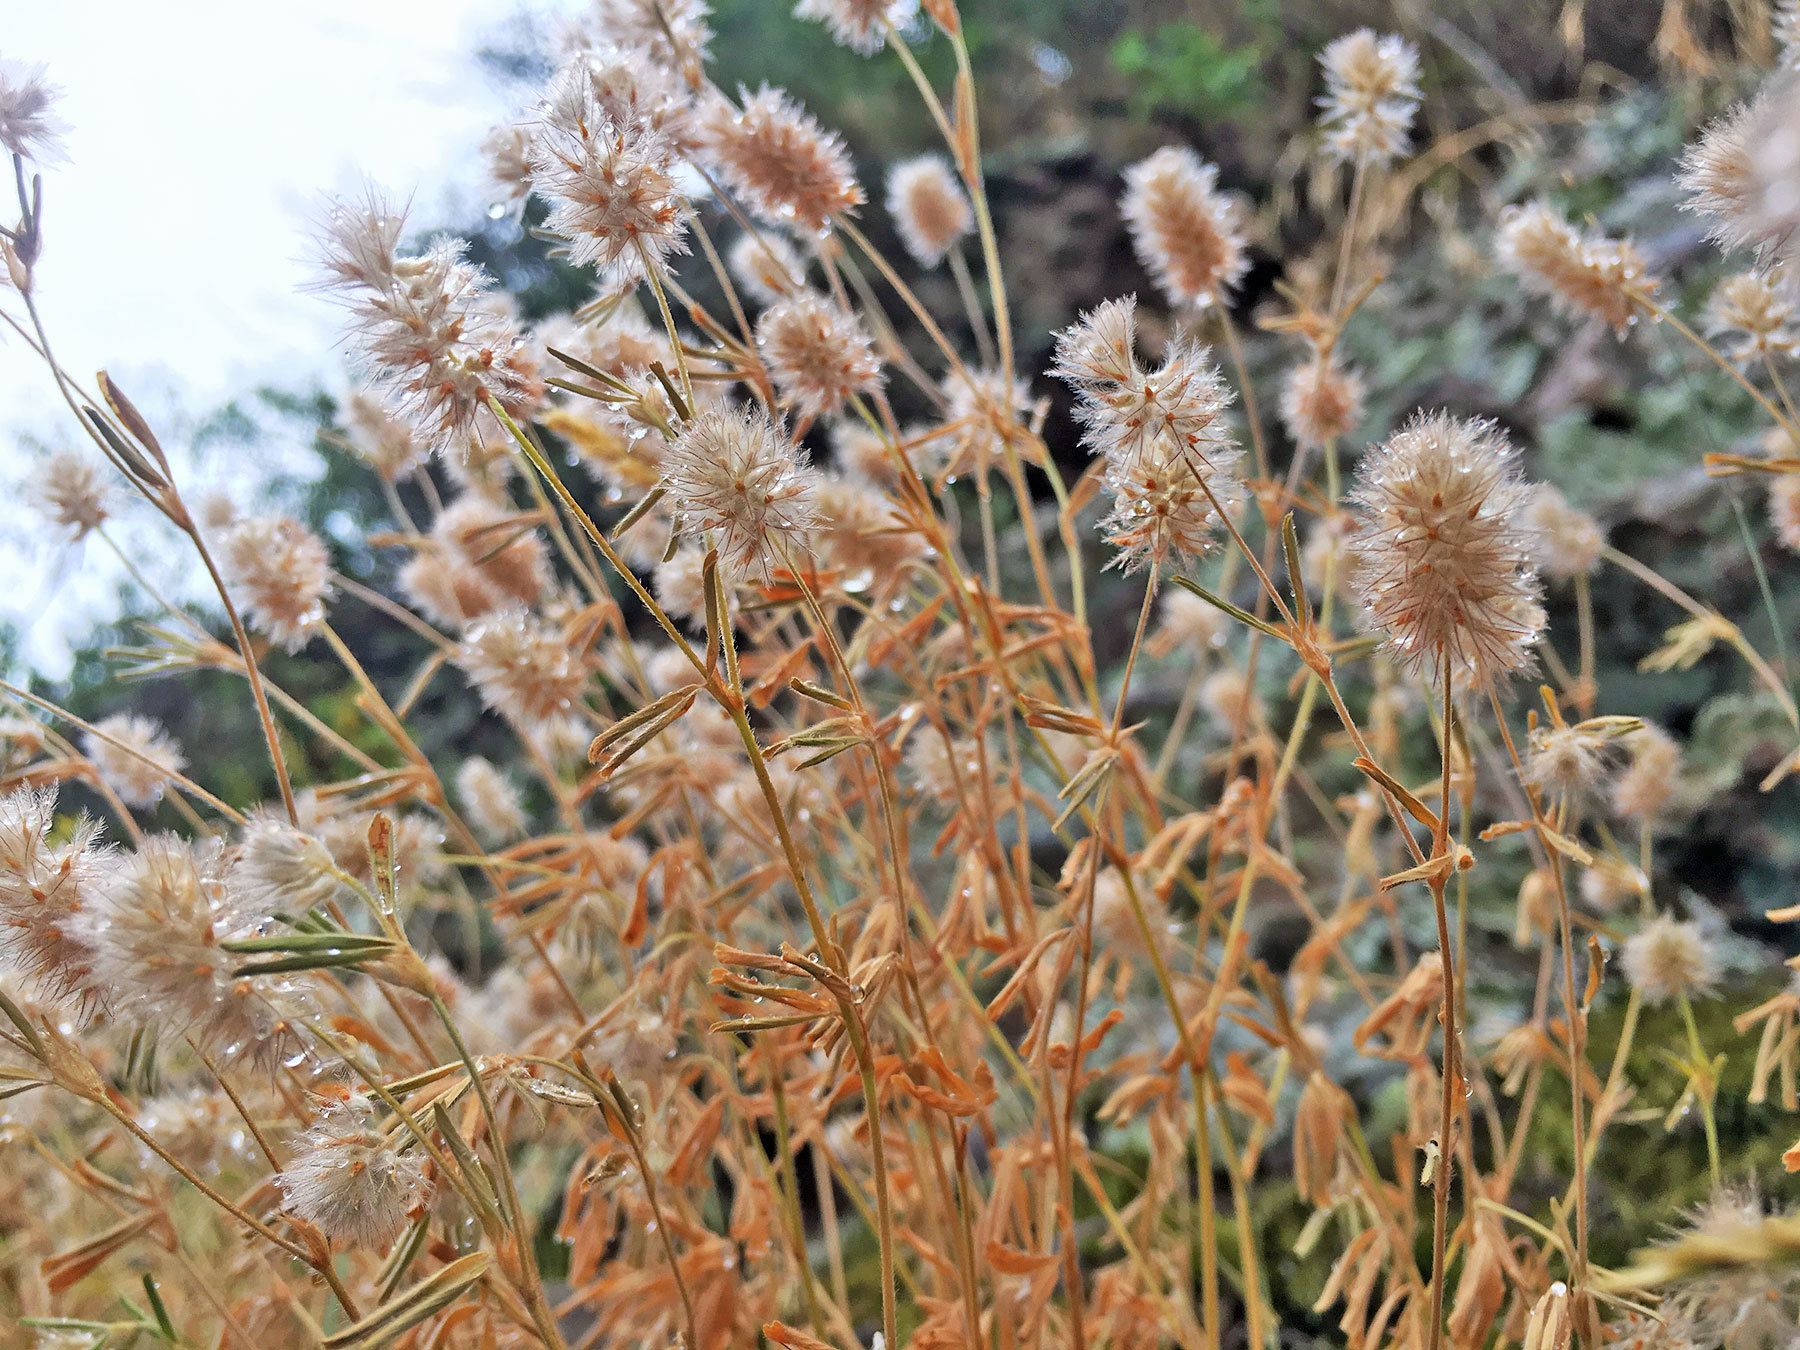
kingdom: Plantae
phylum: Tracheophyta
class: Magnoliopsida
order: Fabales
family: Fabaceae
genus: Trifolium
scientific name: Trifolium arvense
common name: Hare's-foot clover
